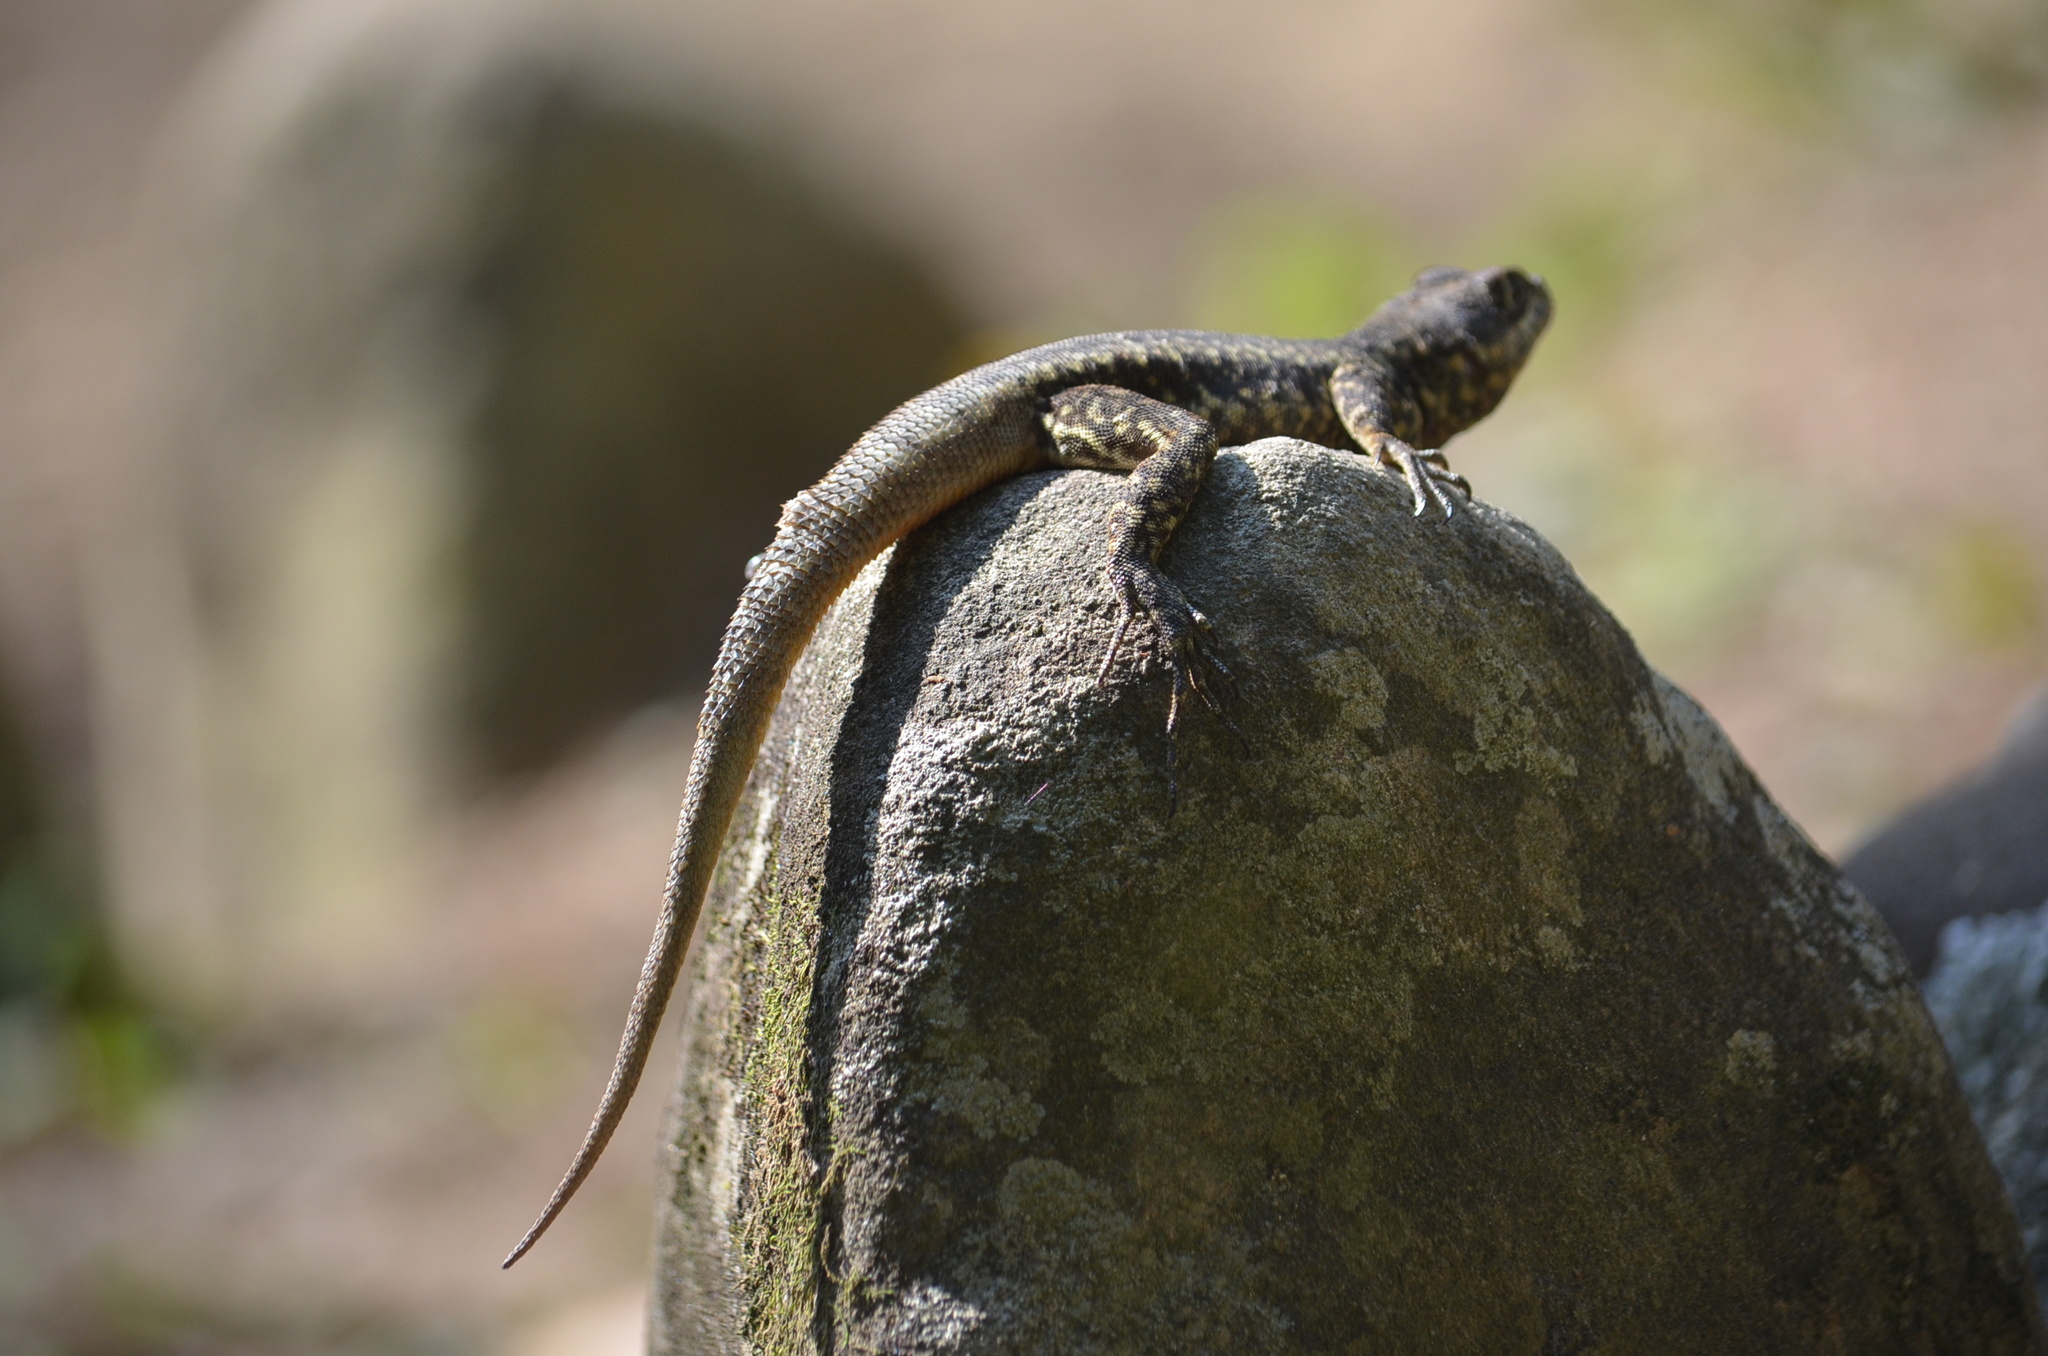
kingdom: Animalia
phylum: Chordata
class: Squamata
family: Tropiduridae
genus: Tropidurus
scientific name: Tropidurus torquatus
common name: Amazon lava lizard
